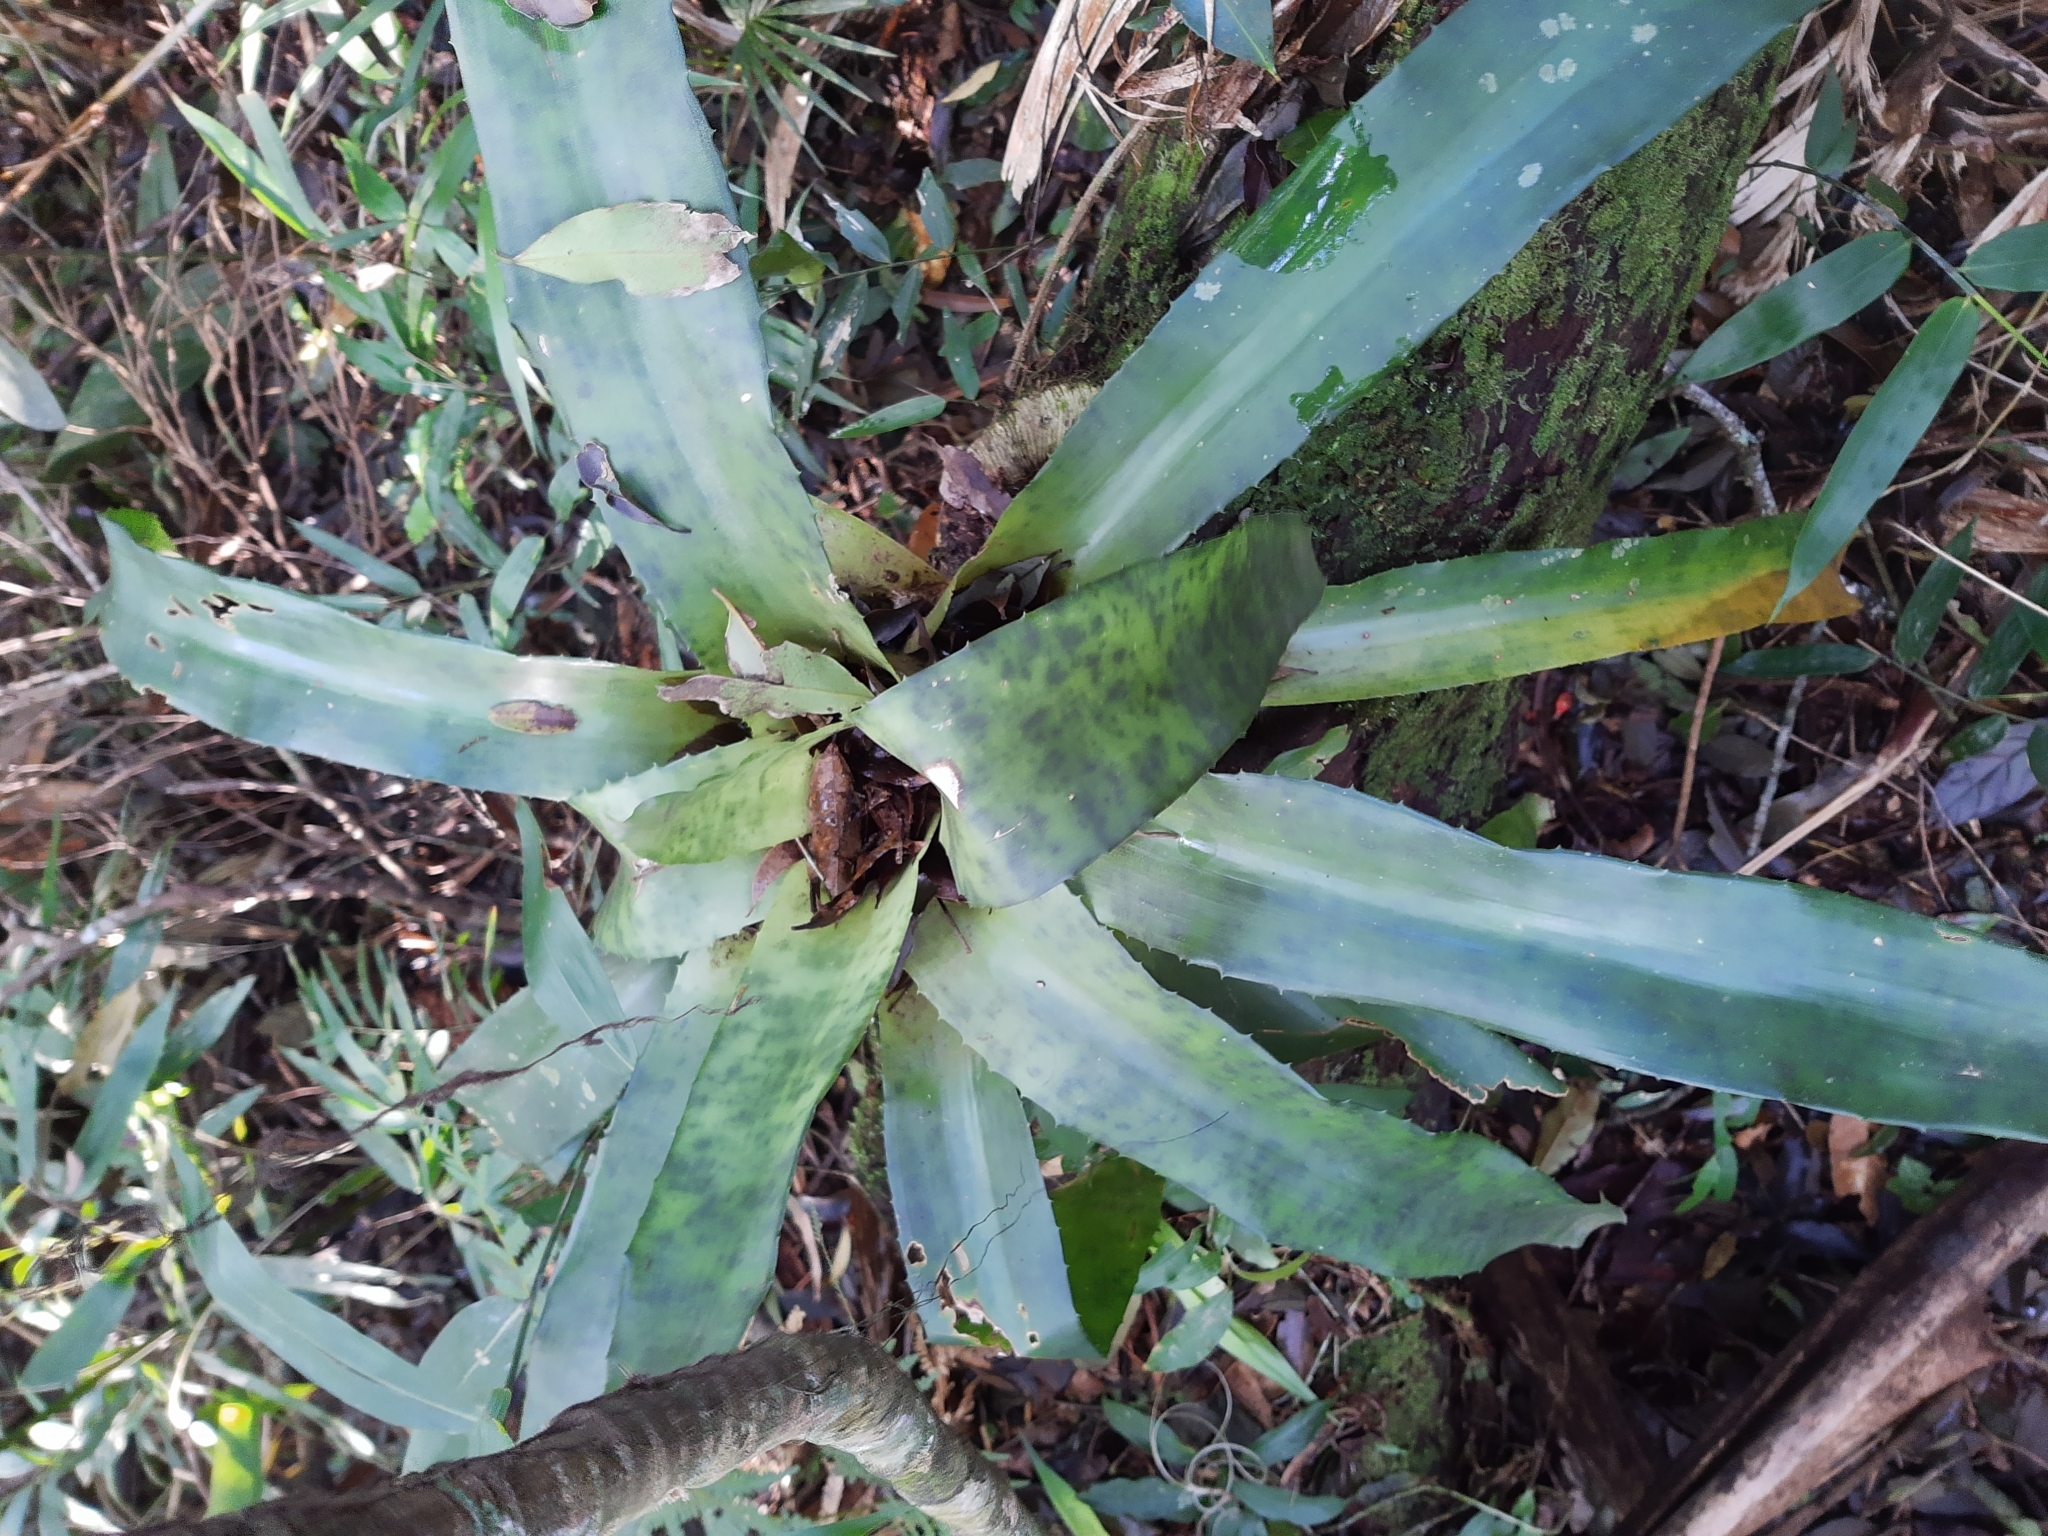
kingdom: Plantae
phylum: Tracheophyta
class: Liliopsida
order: Poales
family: Bromeliaceae
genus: Edmundoa
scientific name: Edmundoa lindenii
